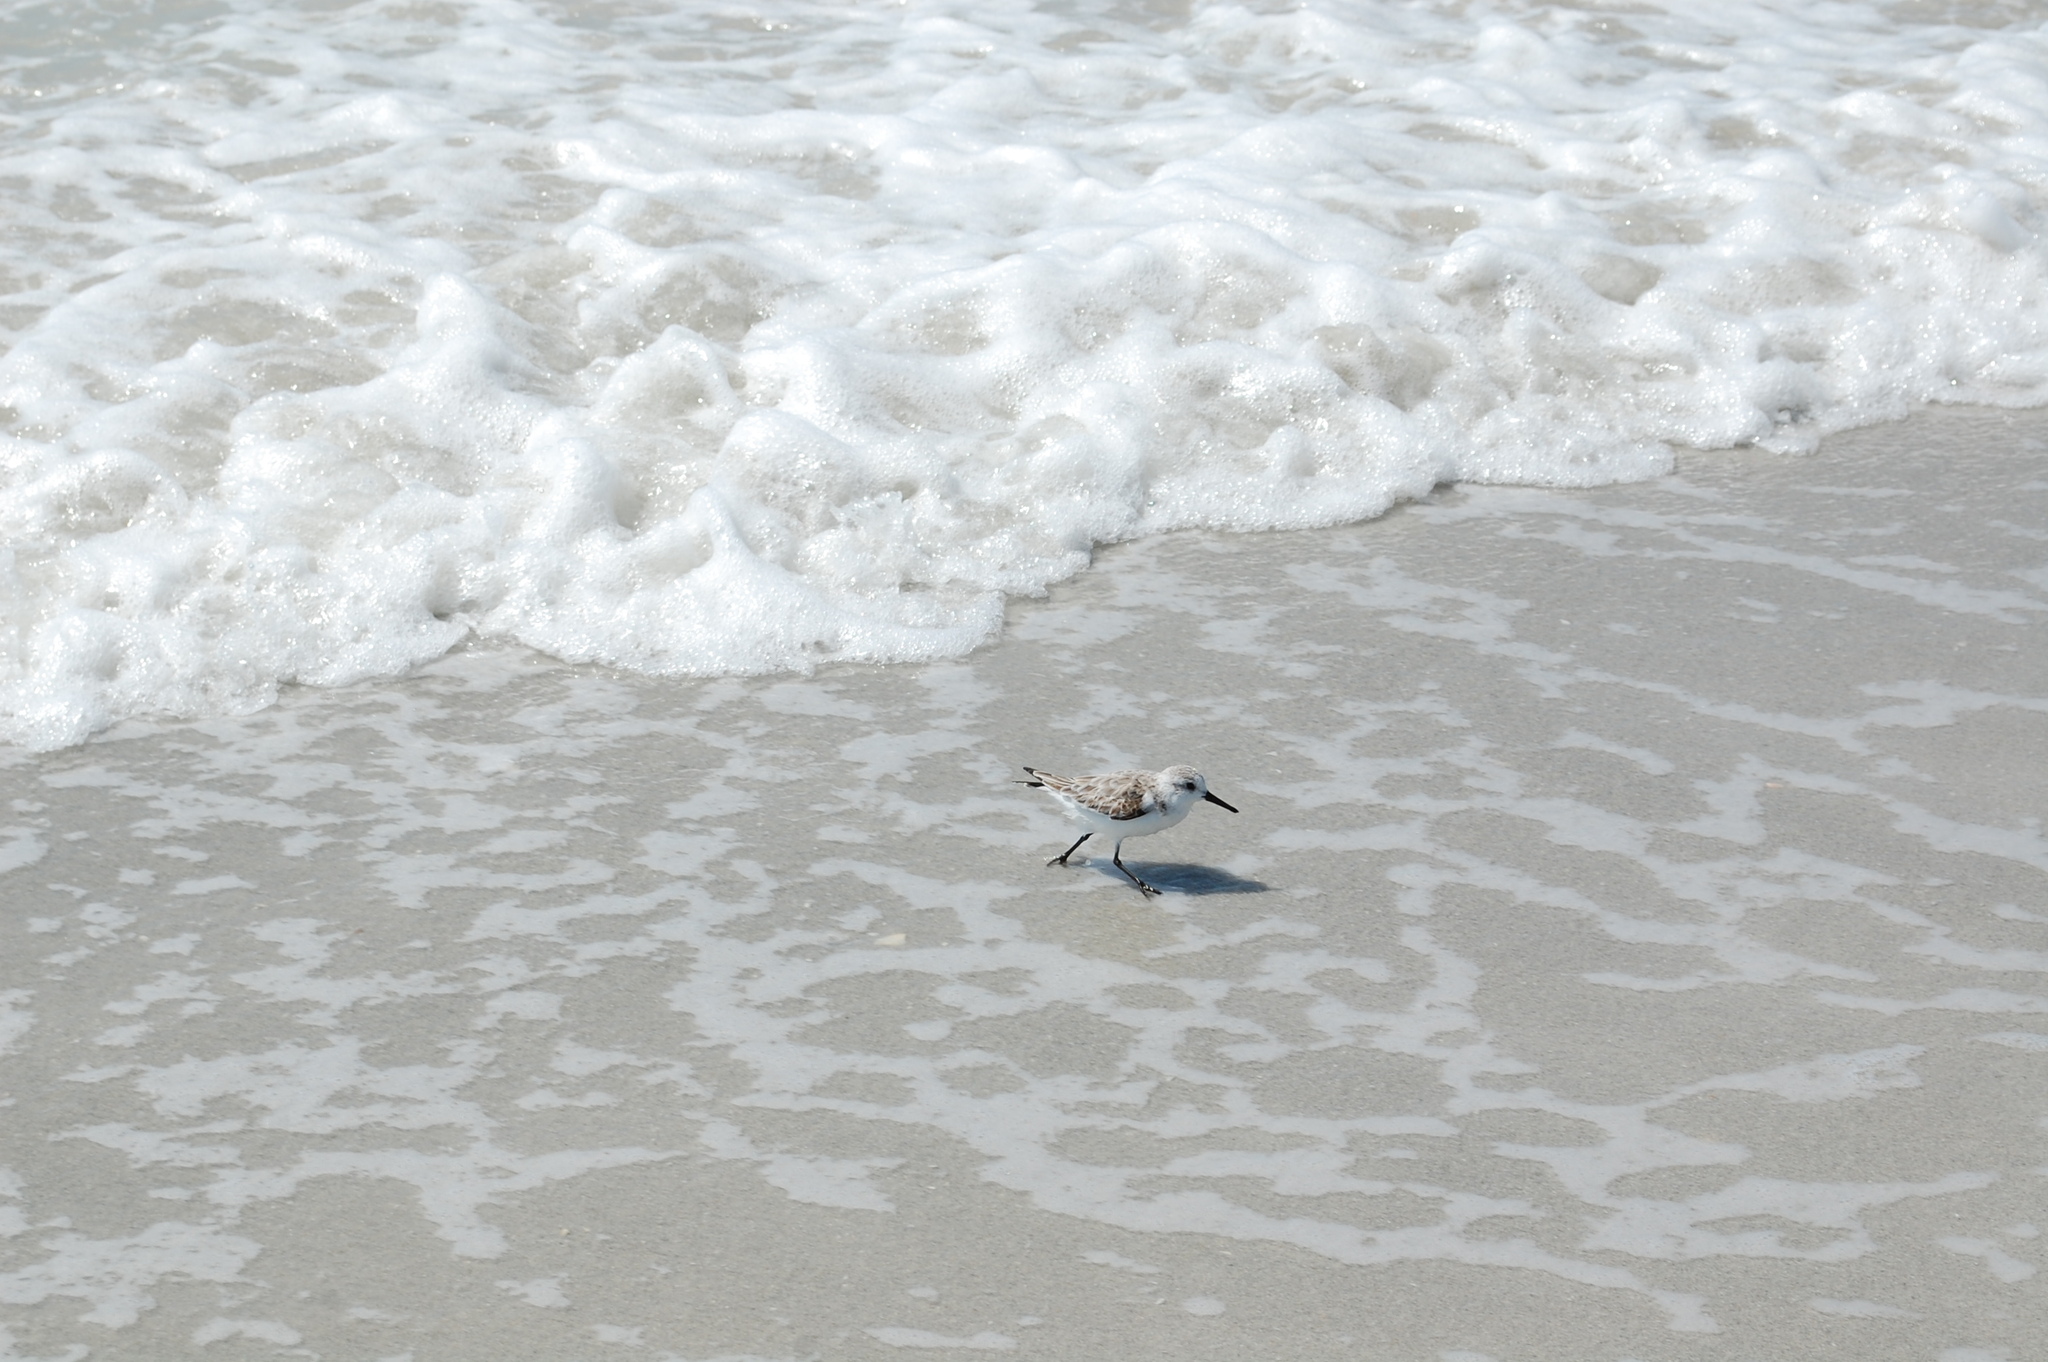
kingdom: Animalia
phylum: Chordata
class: Aves
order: Charadriiformes
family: Scolopacidae
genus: Calidris
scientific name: Calidris alba
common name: Sanderling
